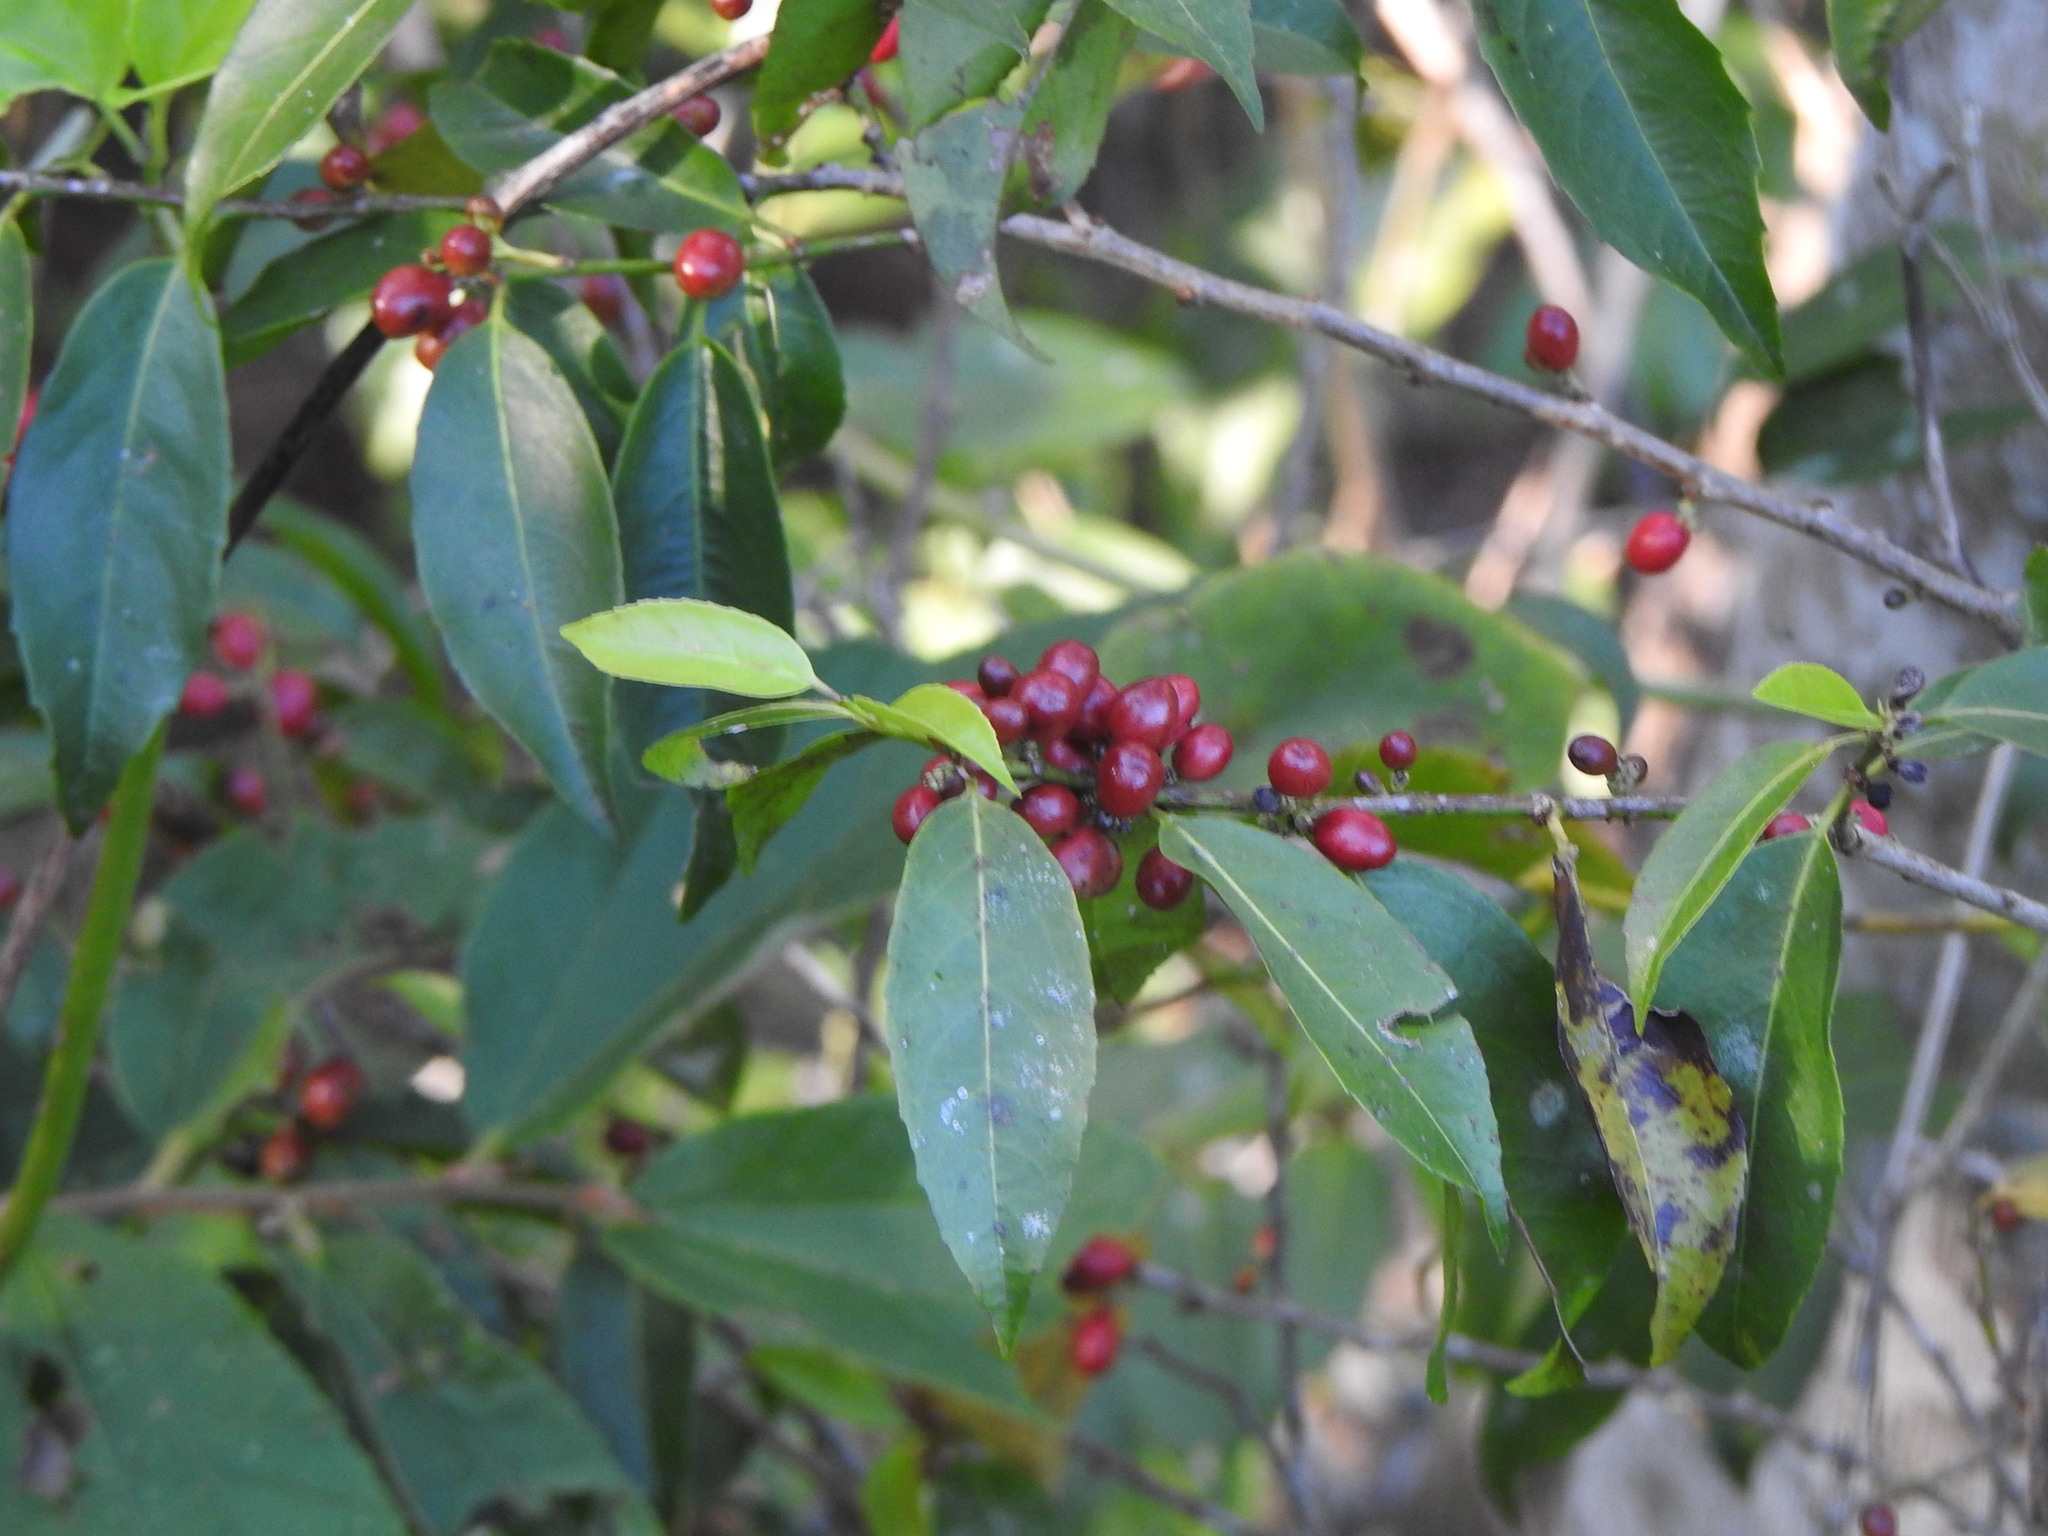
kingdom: Plantae
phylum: Tracheophyta
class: Magnoliopsida
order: Malpighiales
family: Lacistemataceae
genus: Lacistema
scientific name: Lacistema hasslerianum
